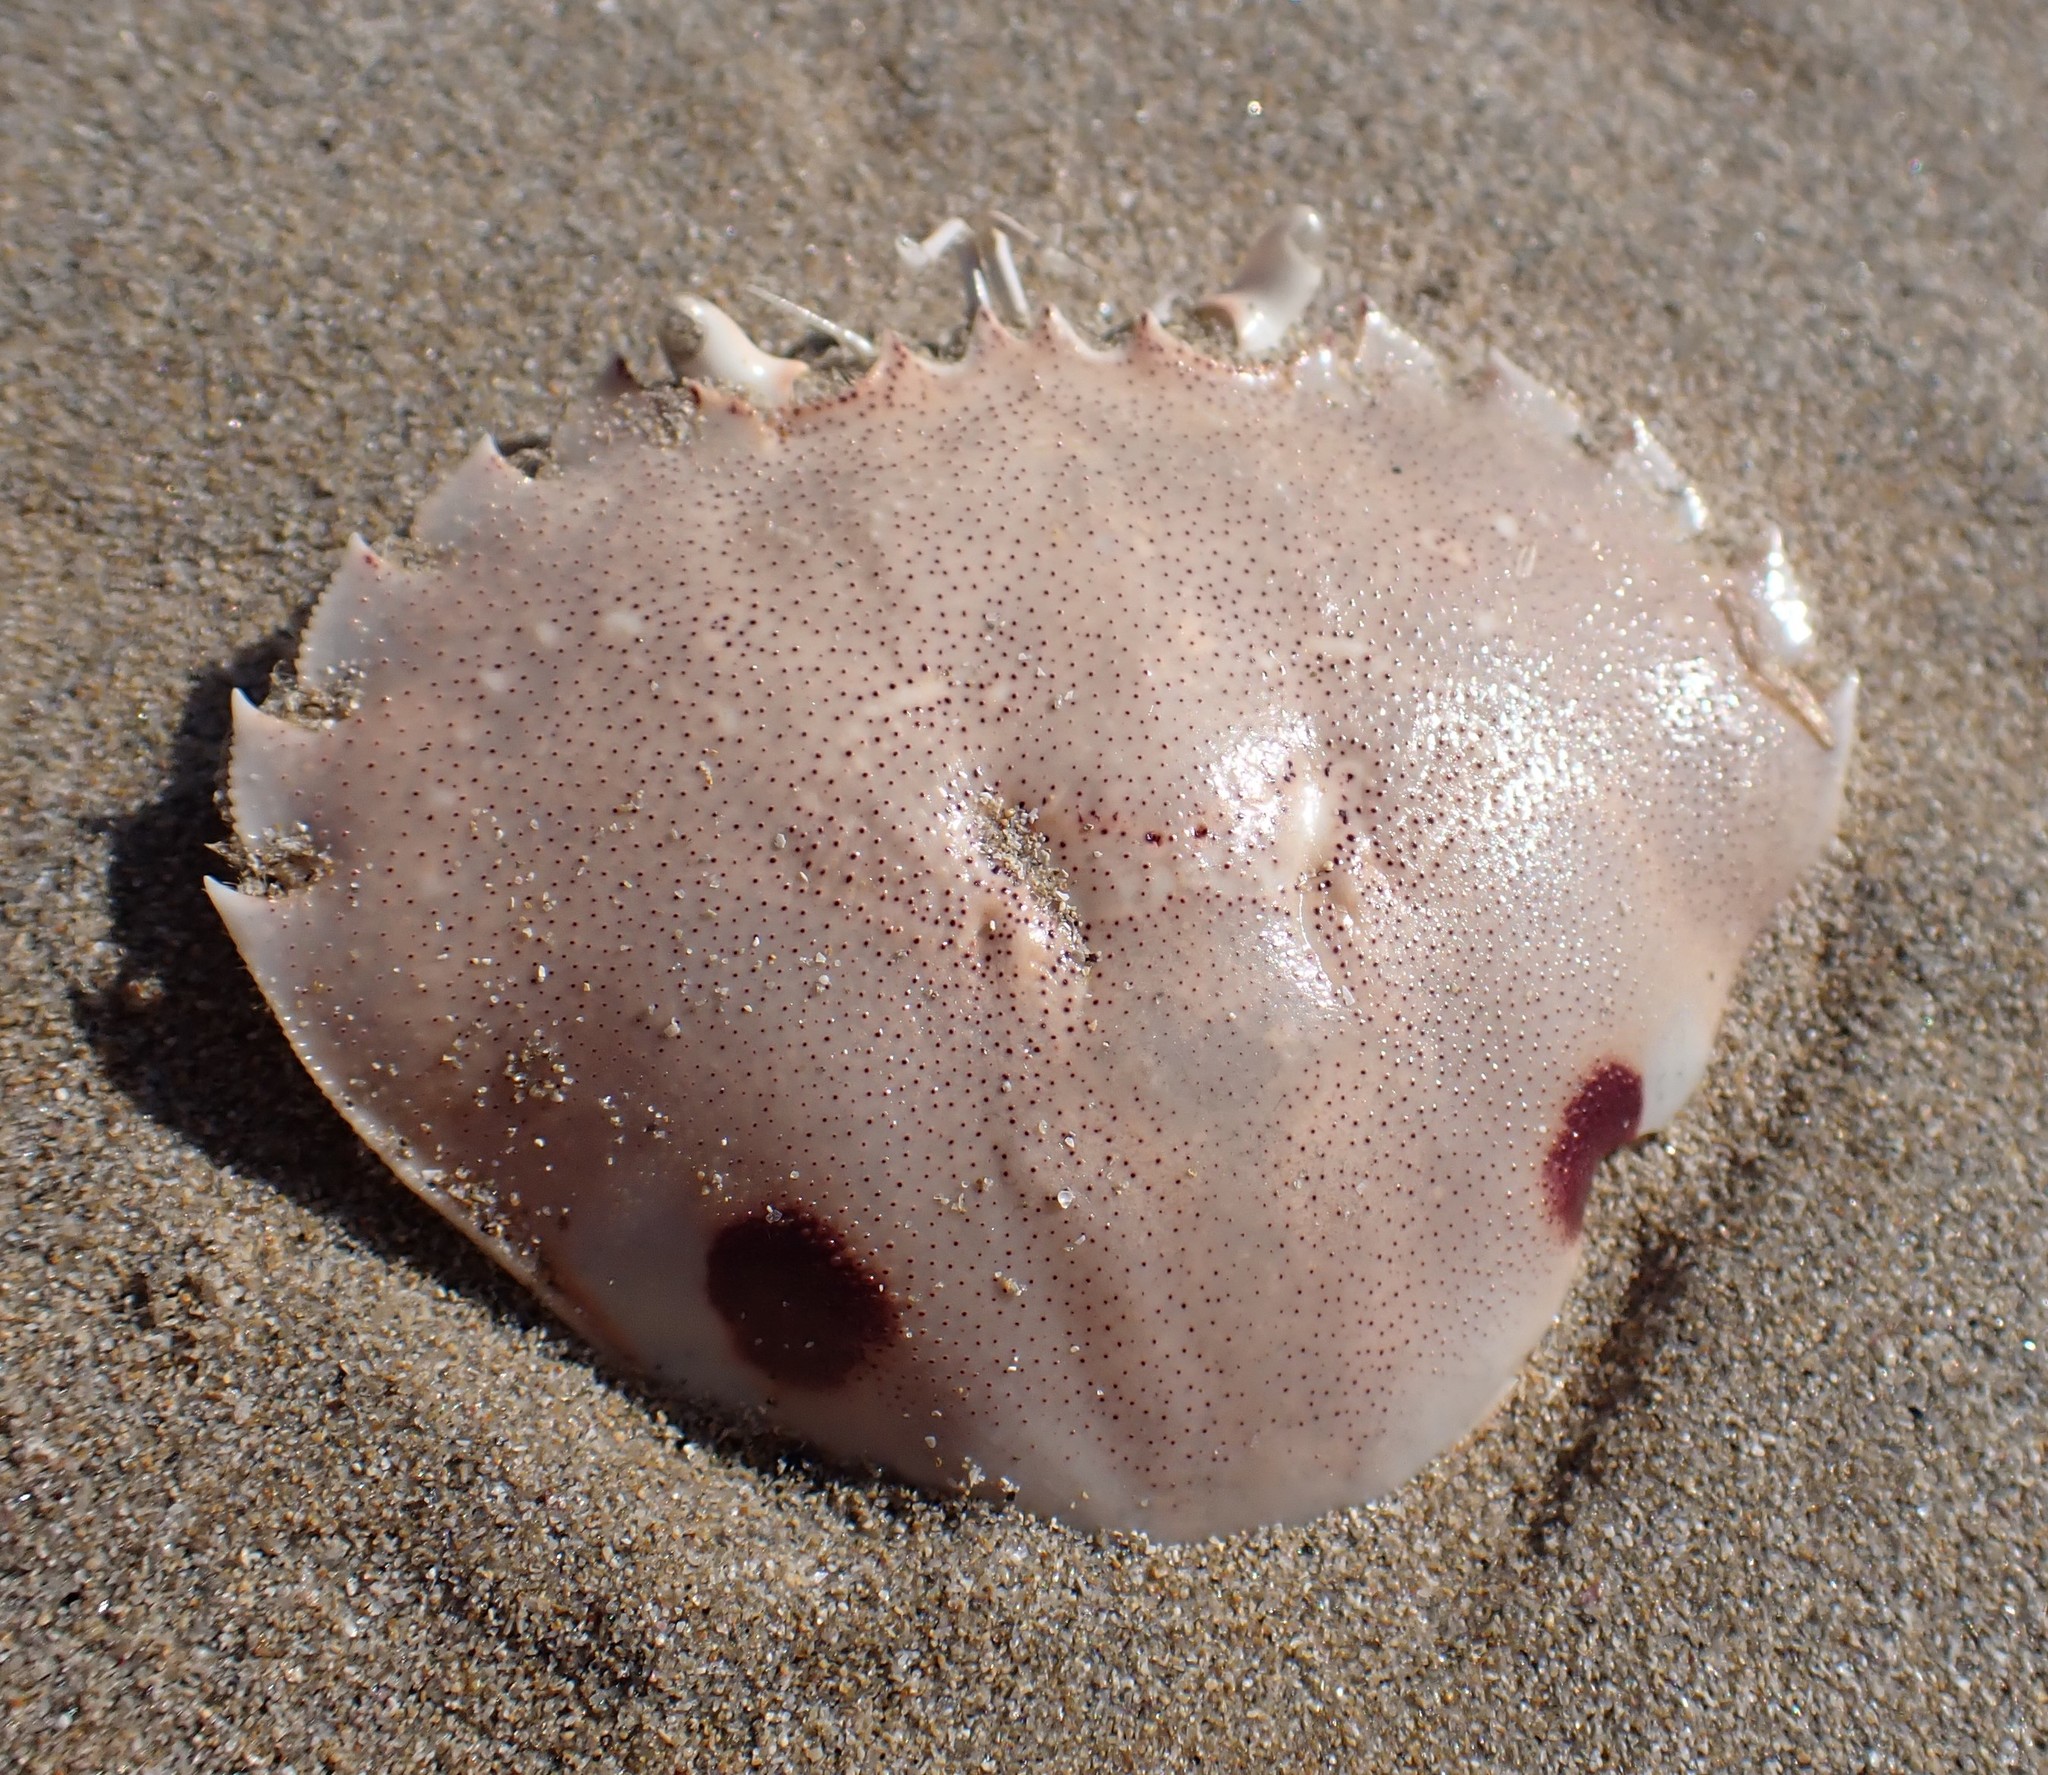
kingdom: Animalia
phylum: Arthropoda
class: Malacostraca
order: Decapoda
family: Ovalipidae
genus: Ovalipes
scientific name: Ovalipes australiensis
